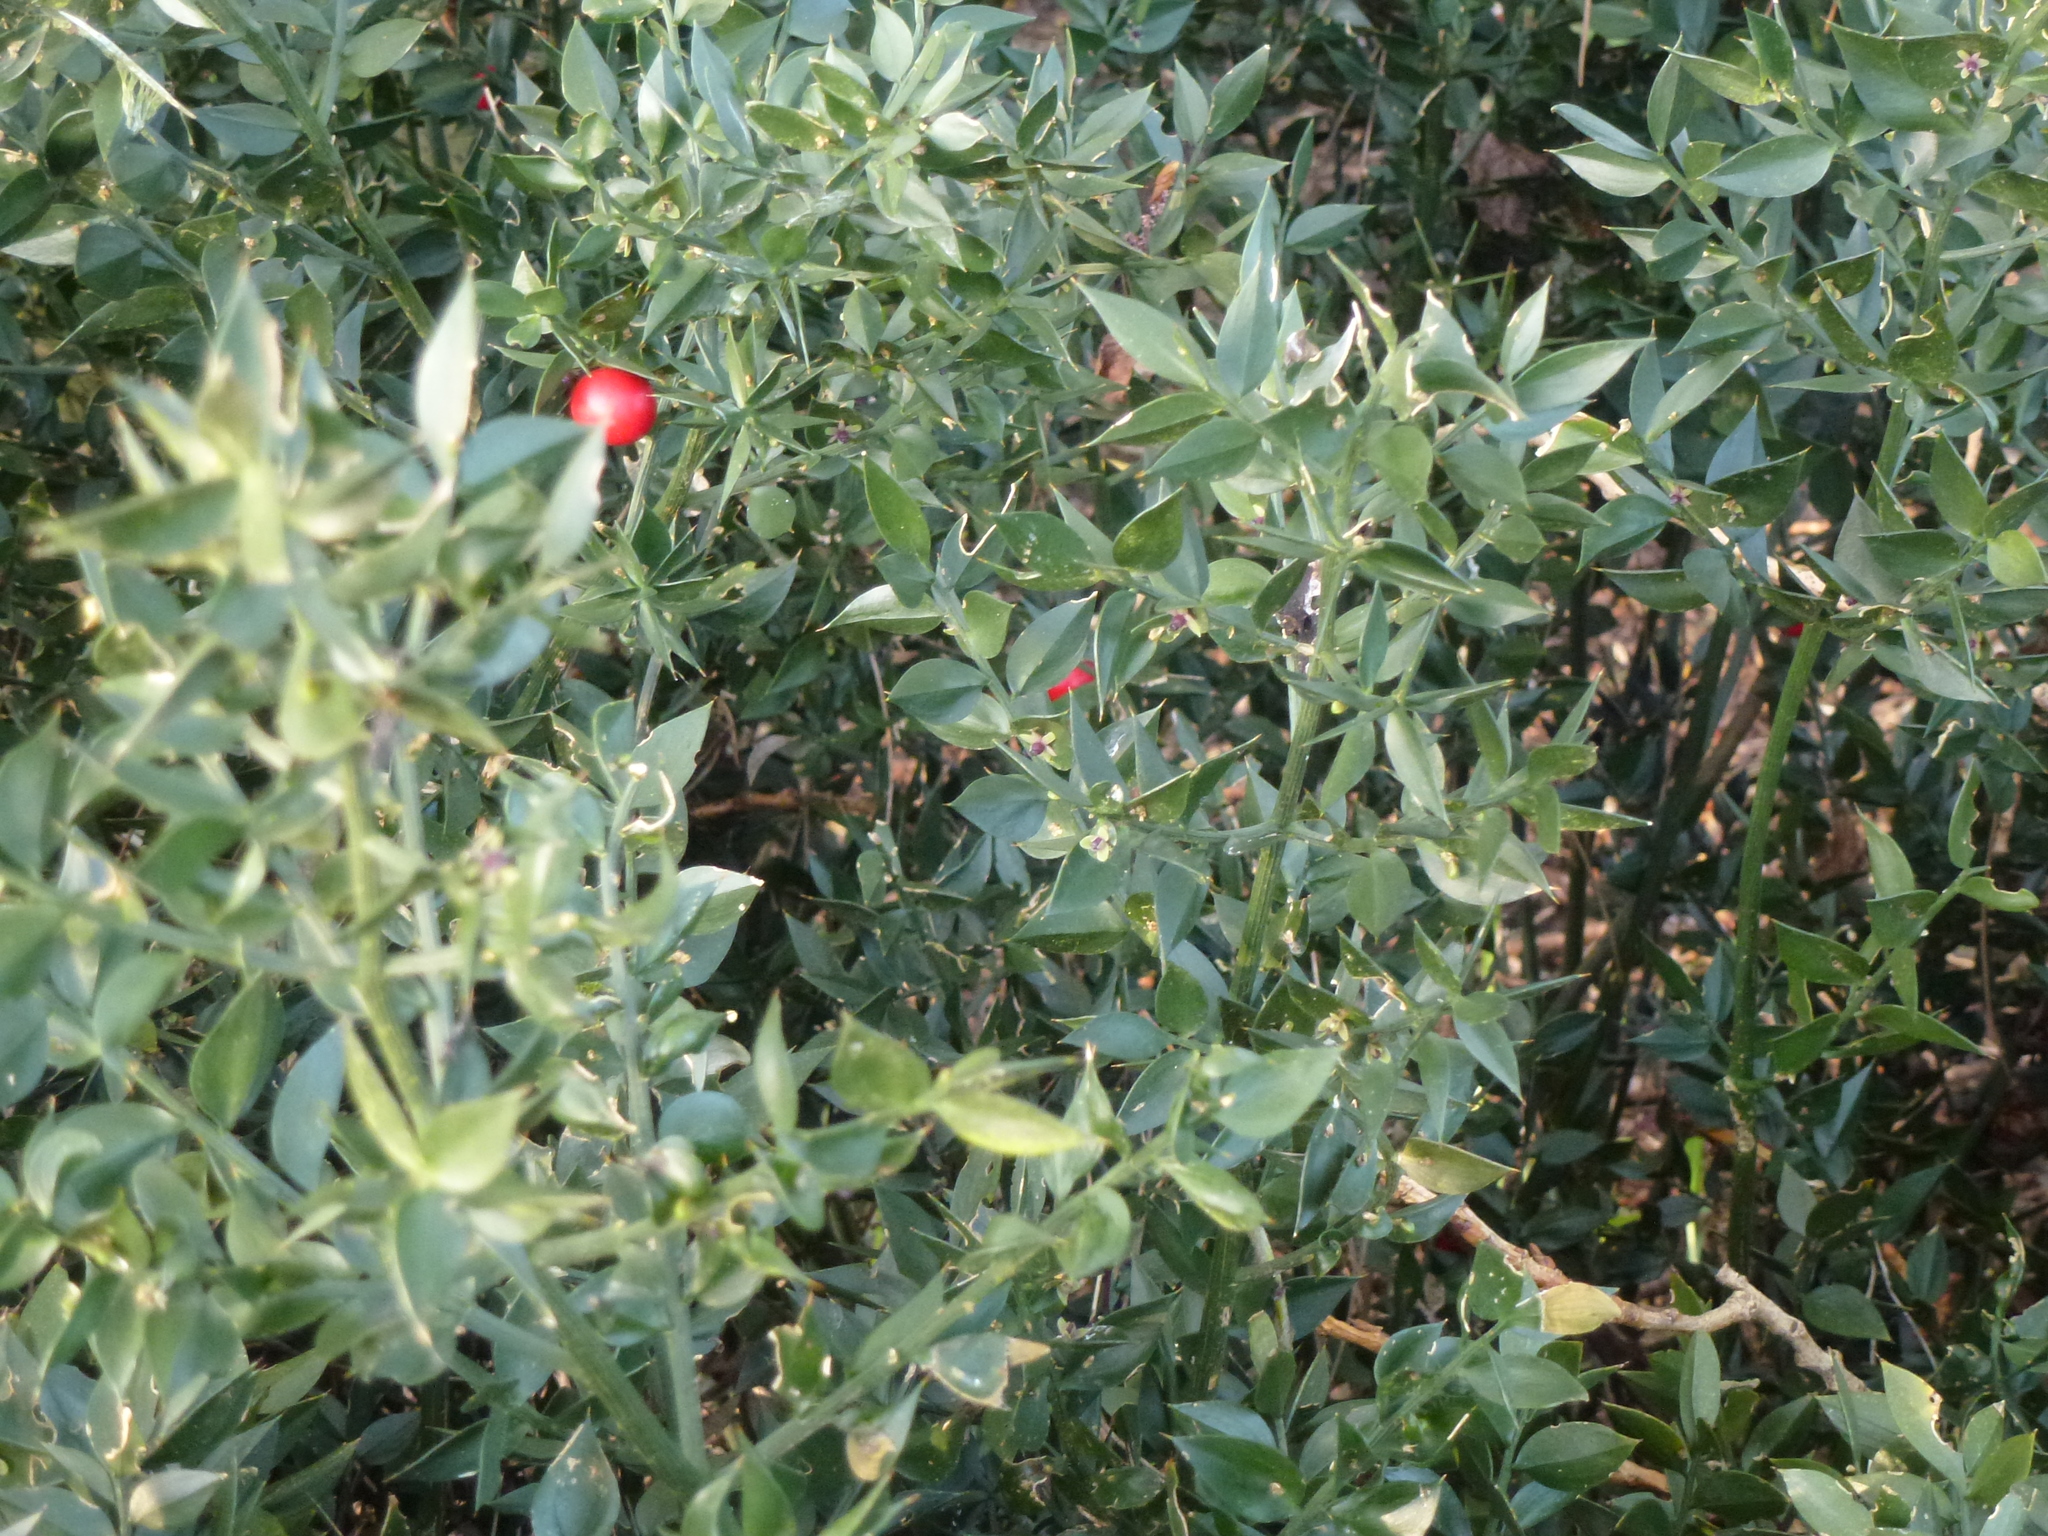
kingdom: Plantae
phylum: Tracheophyta
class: Liliopsida
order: Asparagales
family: Asparagaceae
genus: Ruscus
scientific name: Ruscus aculeatus
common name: Butcher's-broom
